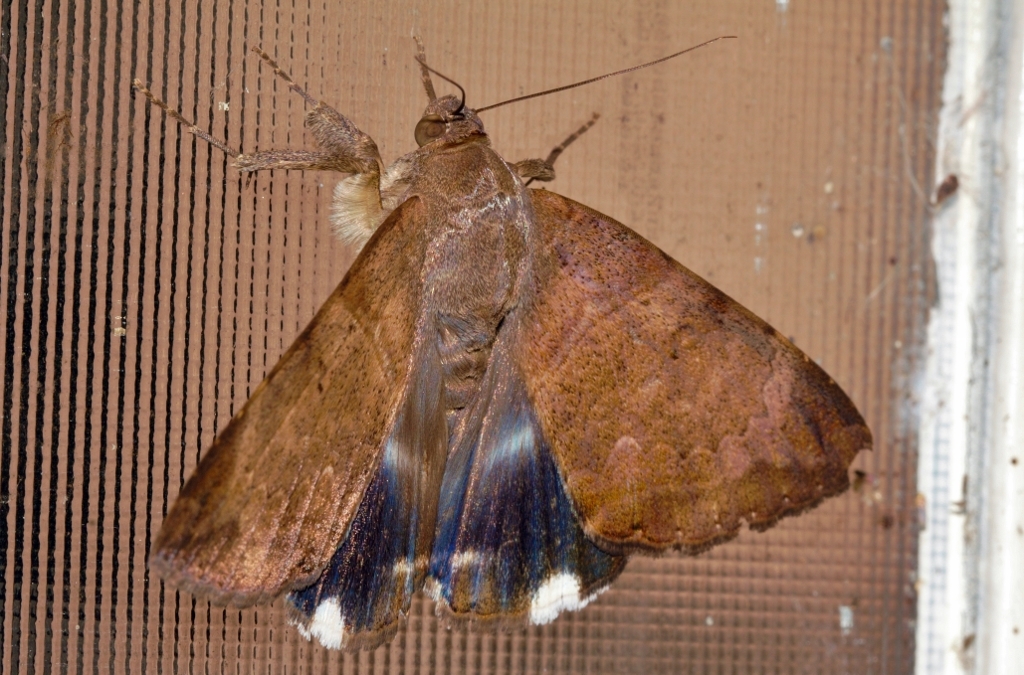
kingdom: Animalia
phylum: Arthropoda
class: Insecta
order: Lepidoptera
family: Erebidae
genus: Achaea
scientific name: Achaea lienardi
